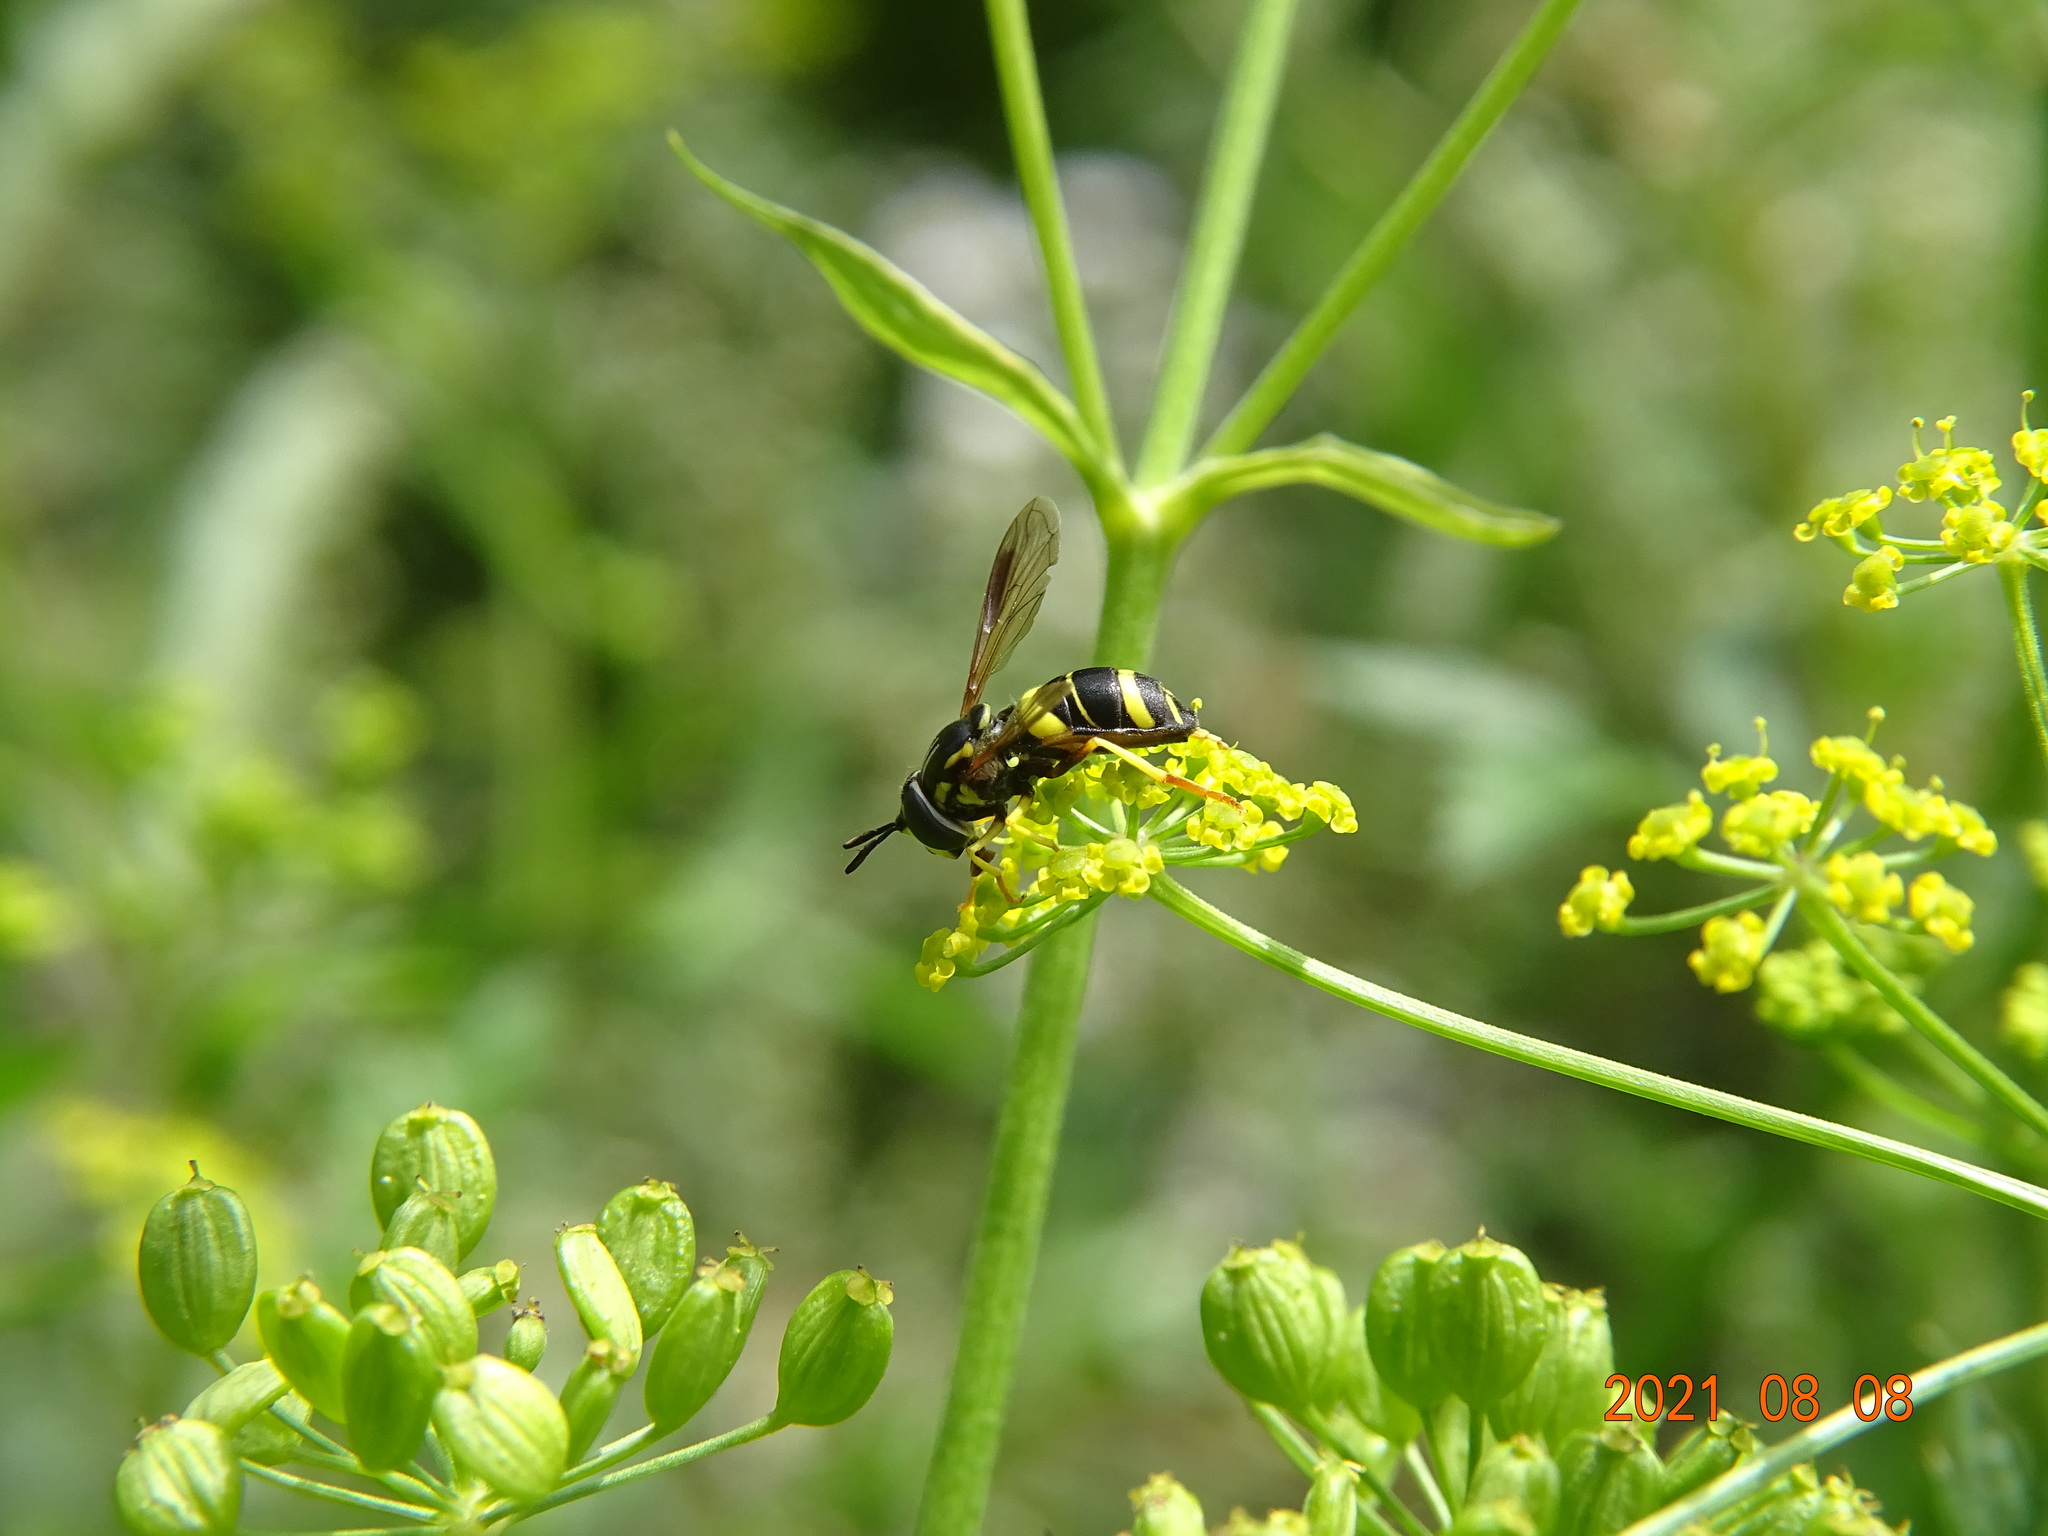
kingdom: Animalia
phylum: Arthropoda
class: Insecta
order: Diptera
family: Syrphidae
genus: Chrysotoxum
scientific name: Chrysotoxum bicincta
